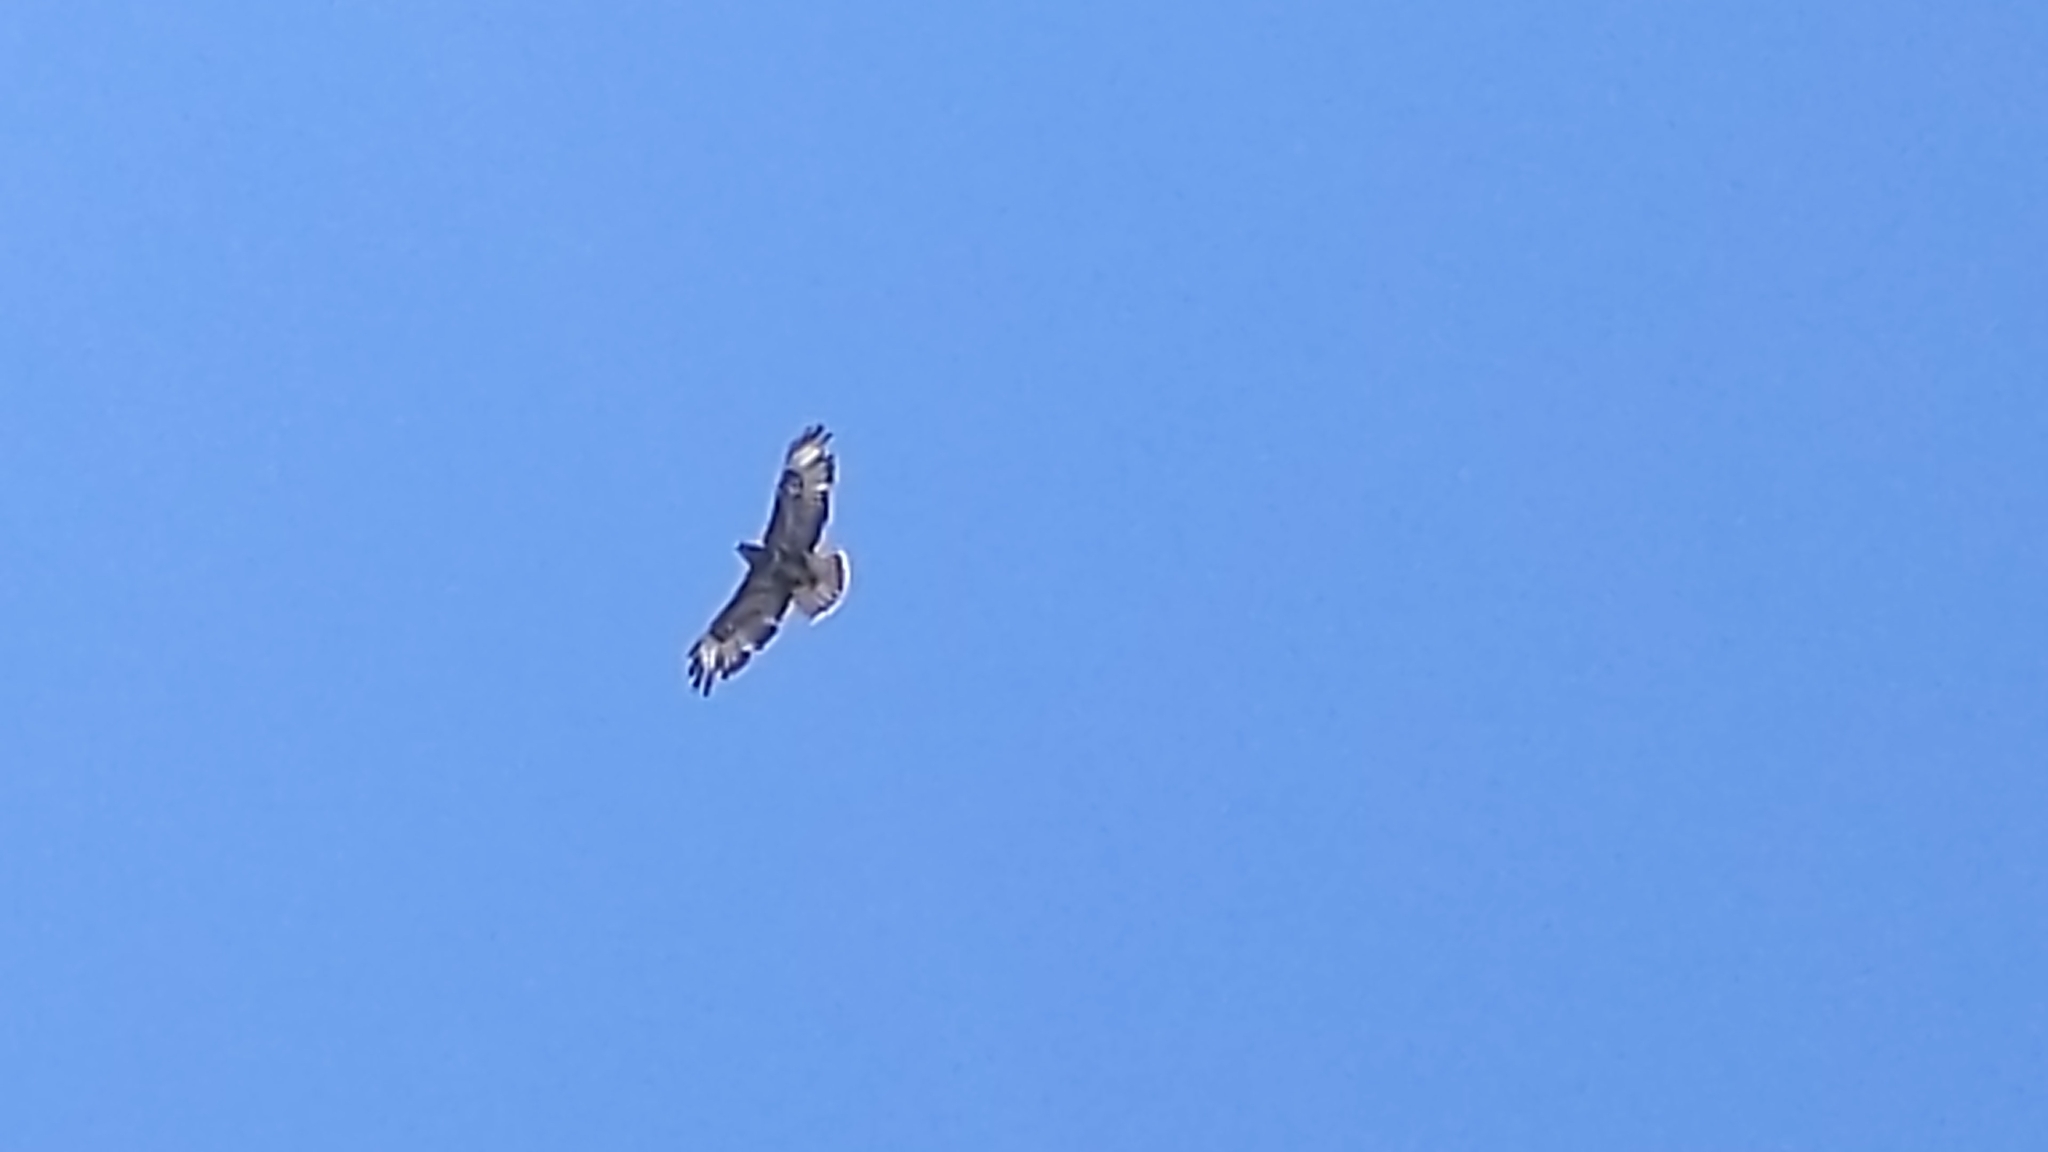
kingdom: Animalia
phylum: Chordata
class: Aves
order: Accipitriformes
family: Accipitridae
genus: Buteo
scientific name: Buteo buteo
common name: Common buzzard
